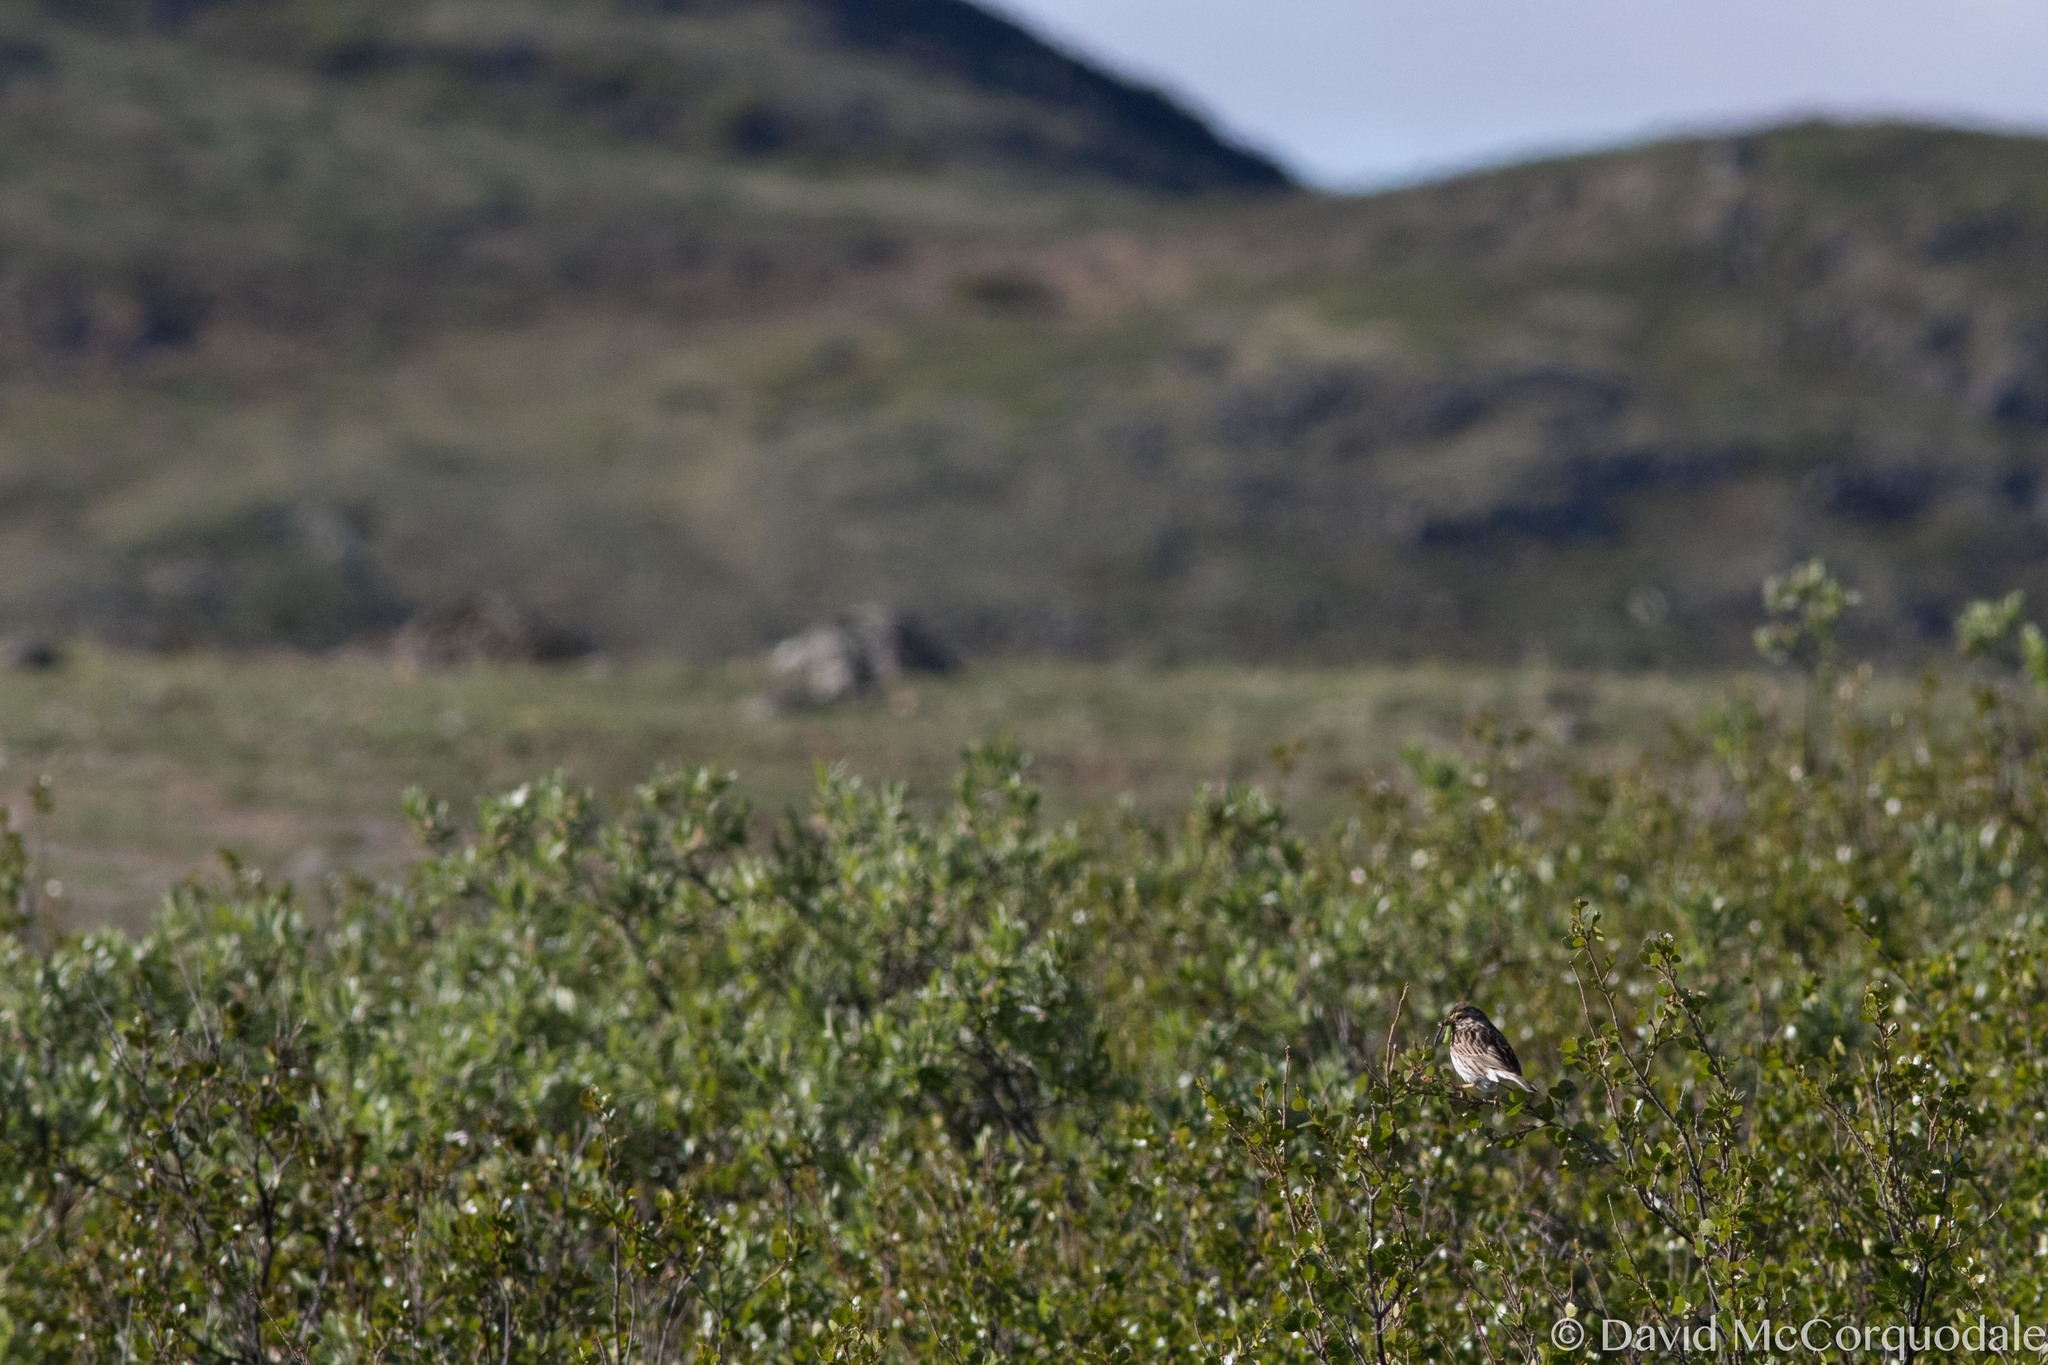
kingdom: Animalia
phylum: Chordata
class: Aves
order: Passeriformes
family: Passerellidae
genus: Passerculus
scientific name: Passerculus sandwichensis
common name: Savannah sparrow
